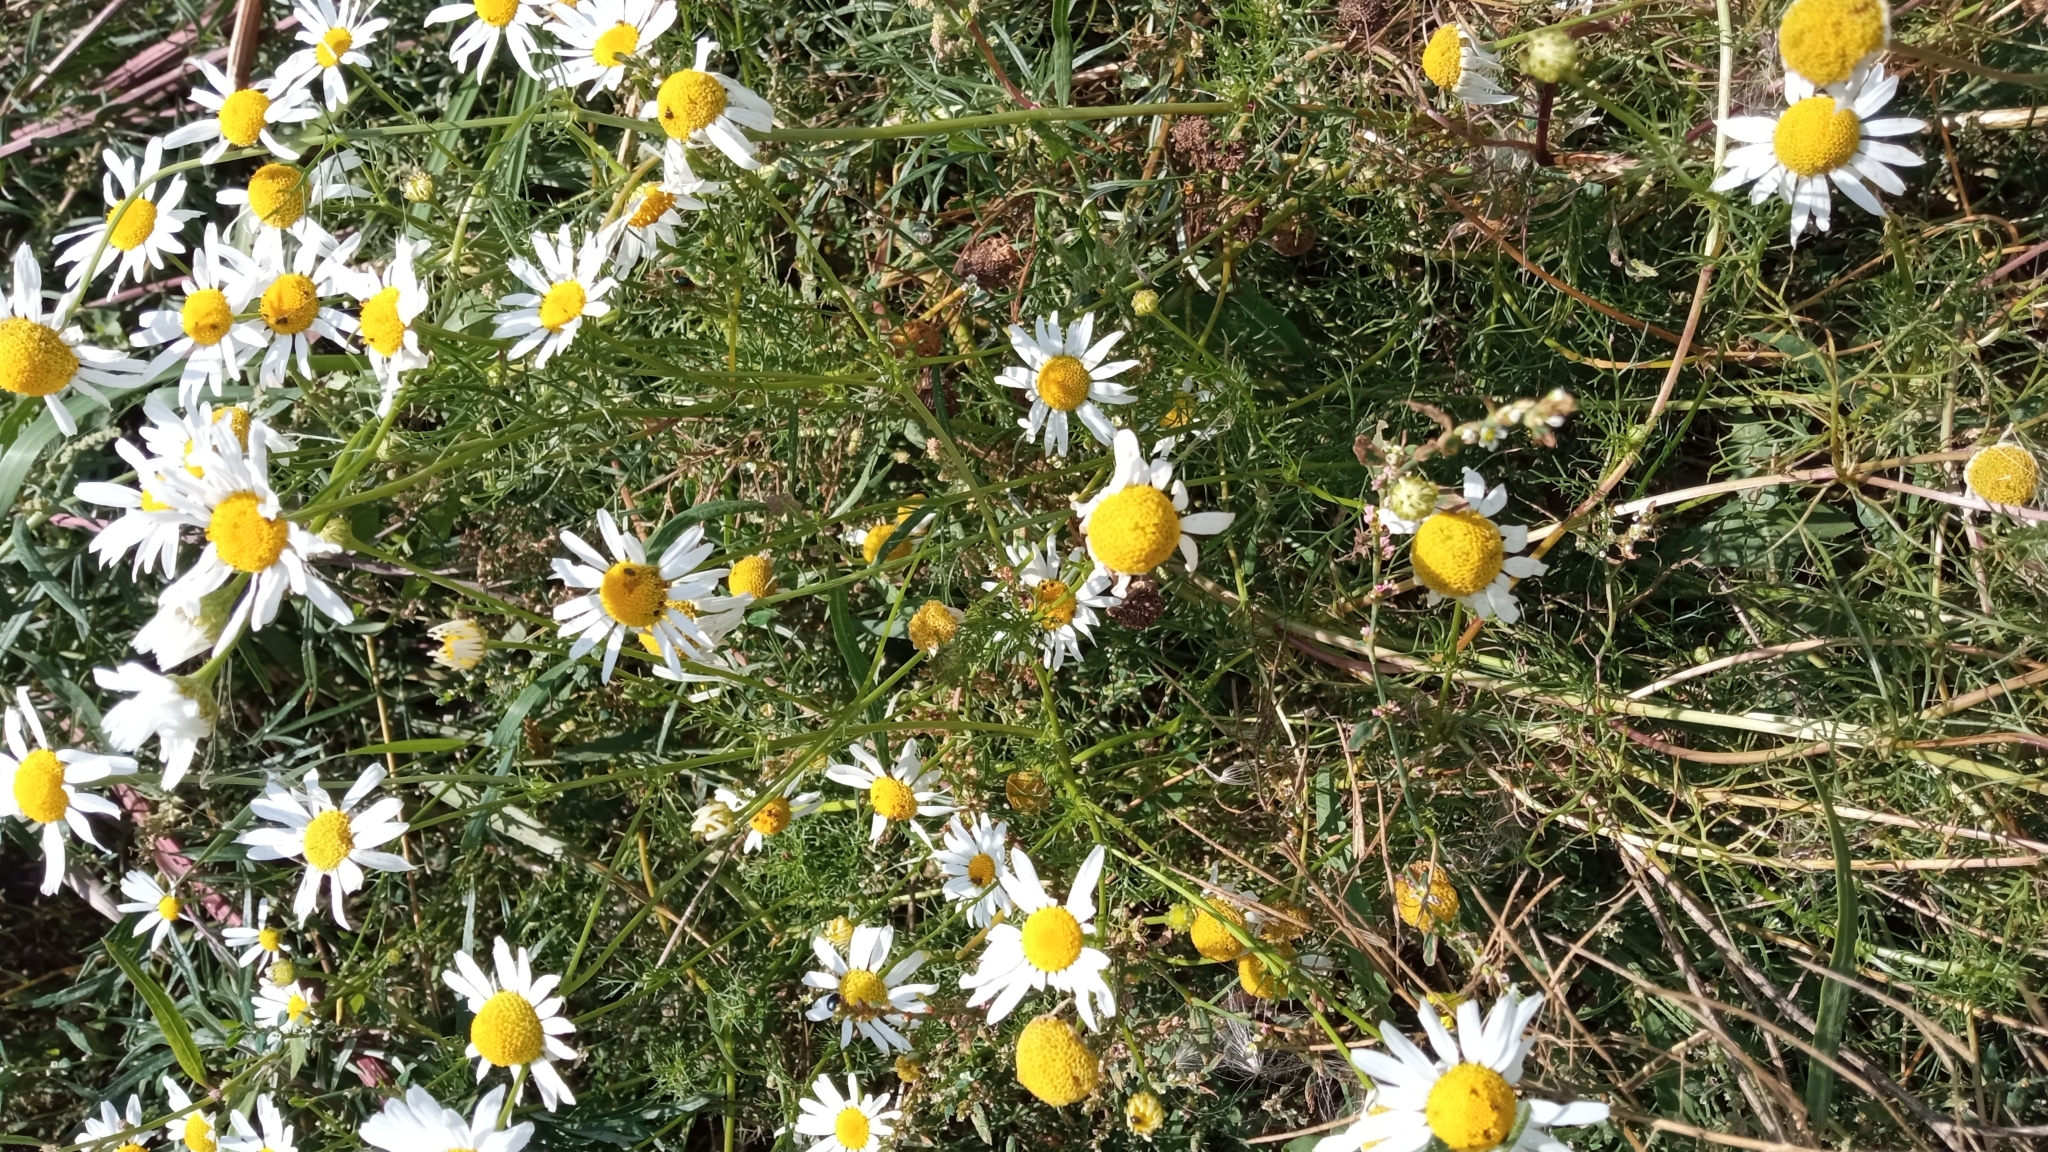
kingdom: Plantae
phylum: Tracheophyta
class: Magnoliopsida
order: Asterales
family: Asteraceae
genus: Tripleurospermum
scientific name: Tripleurospermum inodorum
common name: Scentless mayweed
